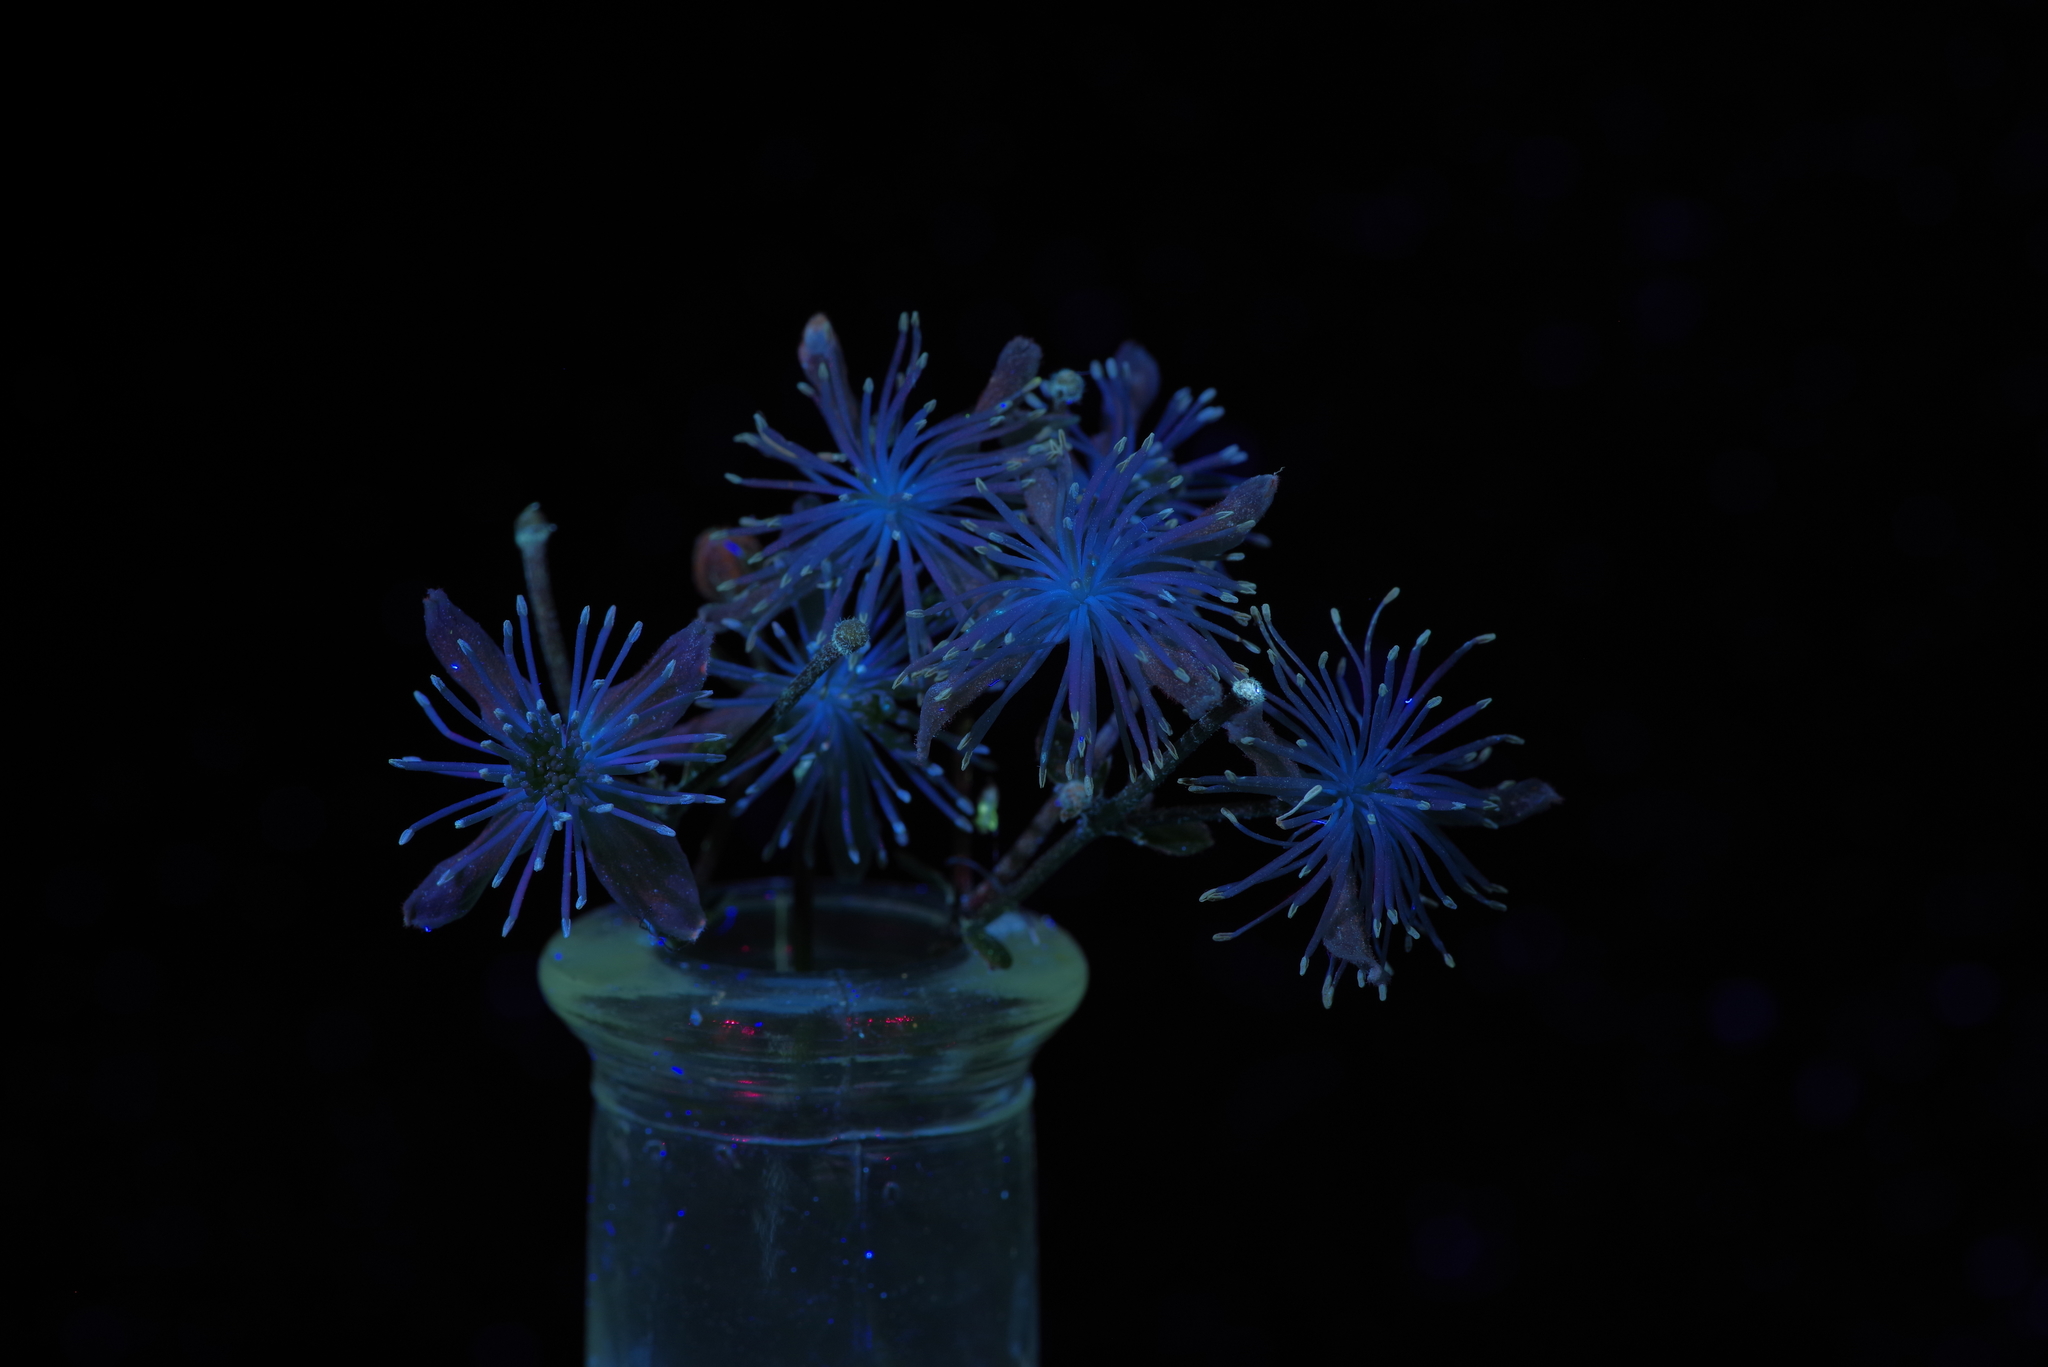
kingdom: Plantae
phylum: Tracheophyta
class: Magnoliopsida
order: Ranunculales
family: Ranunculaceae
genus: Clematis
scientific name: Clematis drummondii
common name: Texas virgin's bower
